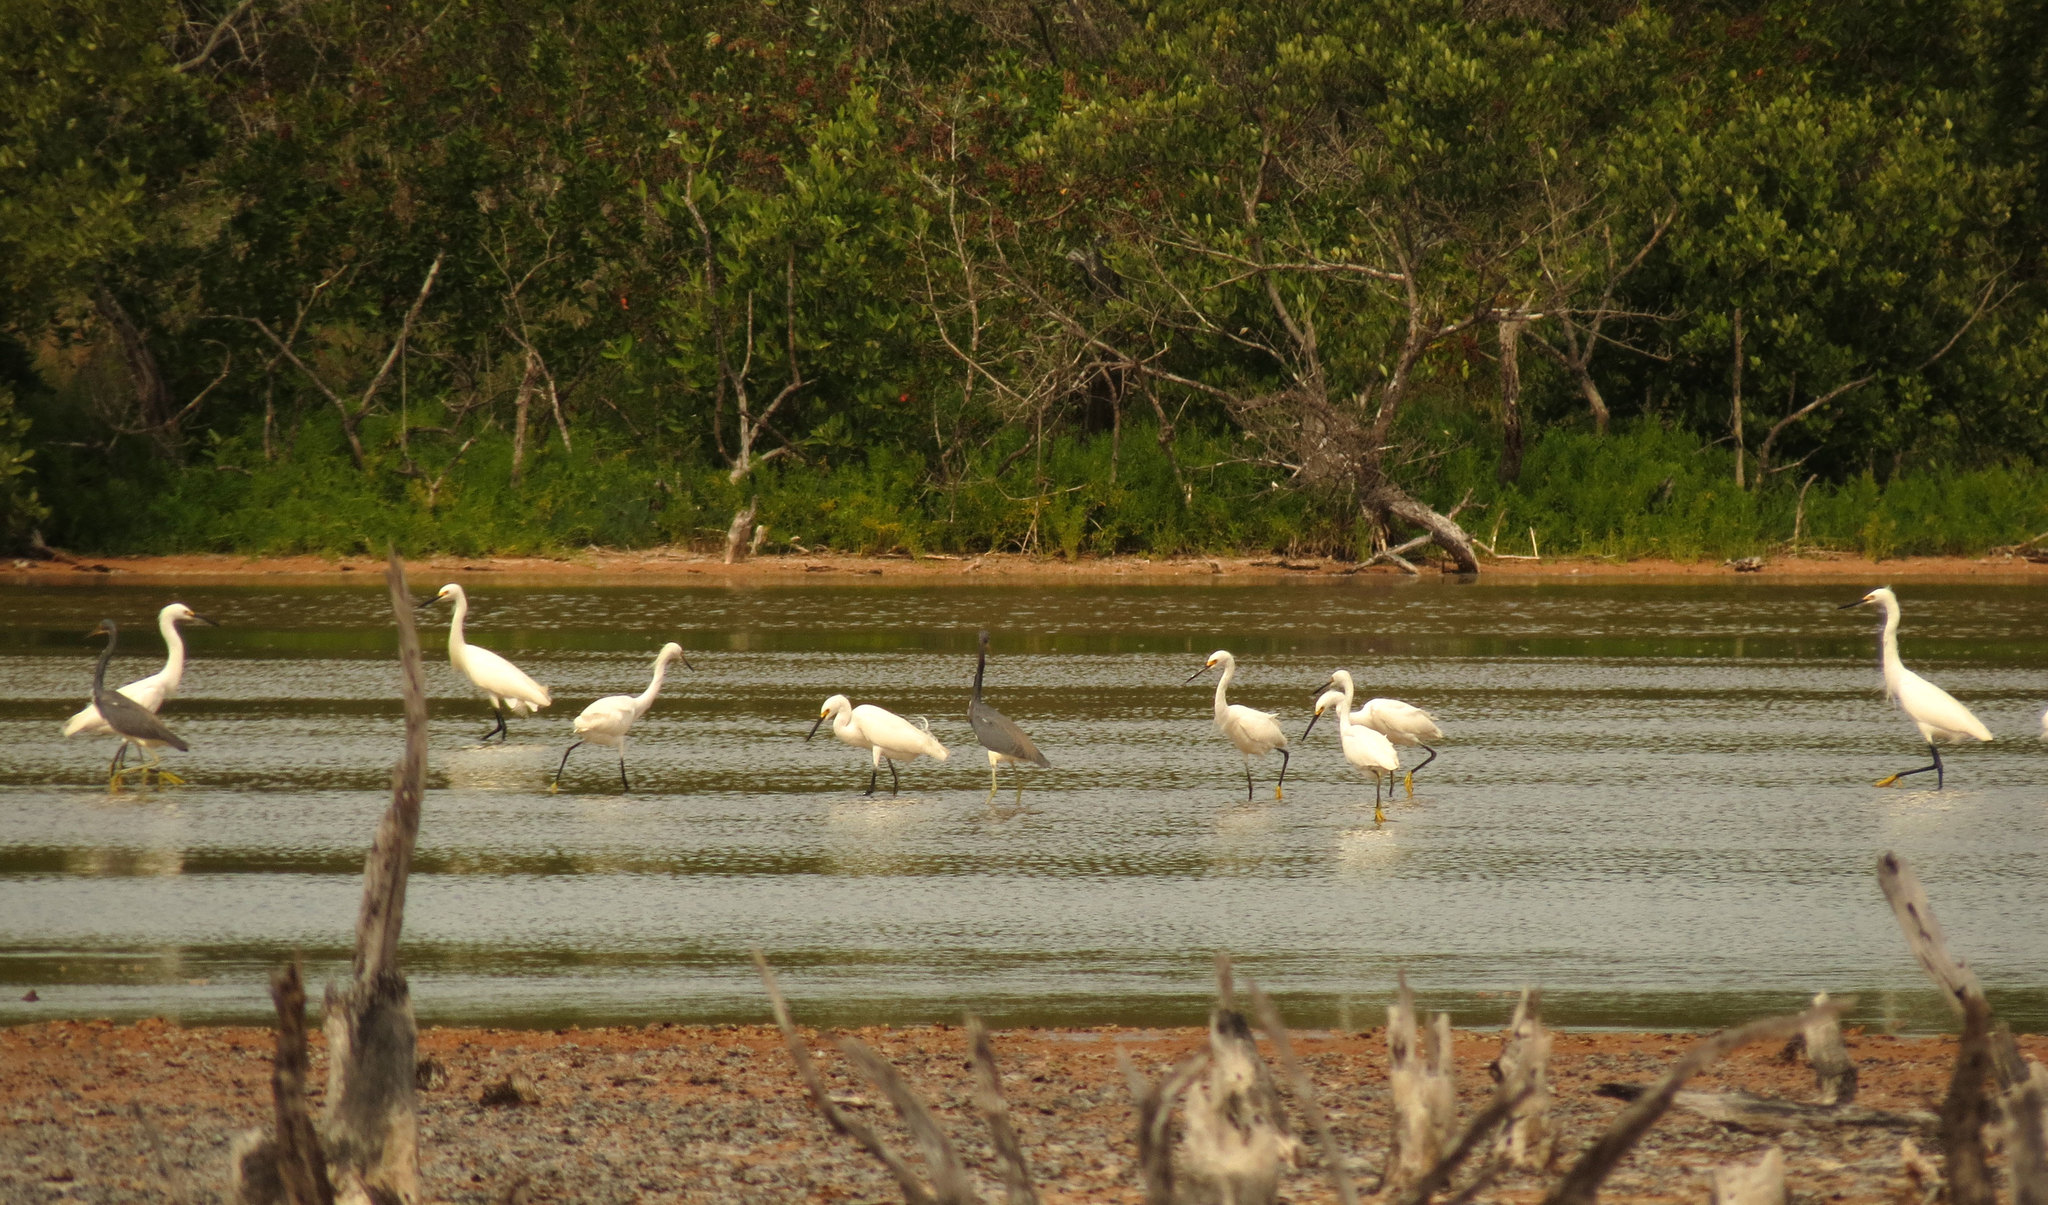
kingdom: Animalia
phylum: Chordata
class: Aves
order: Pelecaniformes
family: Ardeidae
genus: Egretta
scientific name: Egretta thula
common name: Snowy egret
